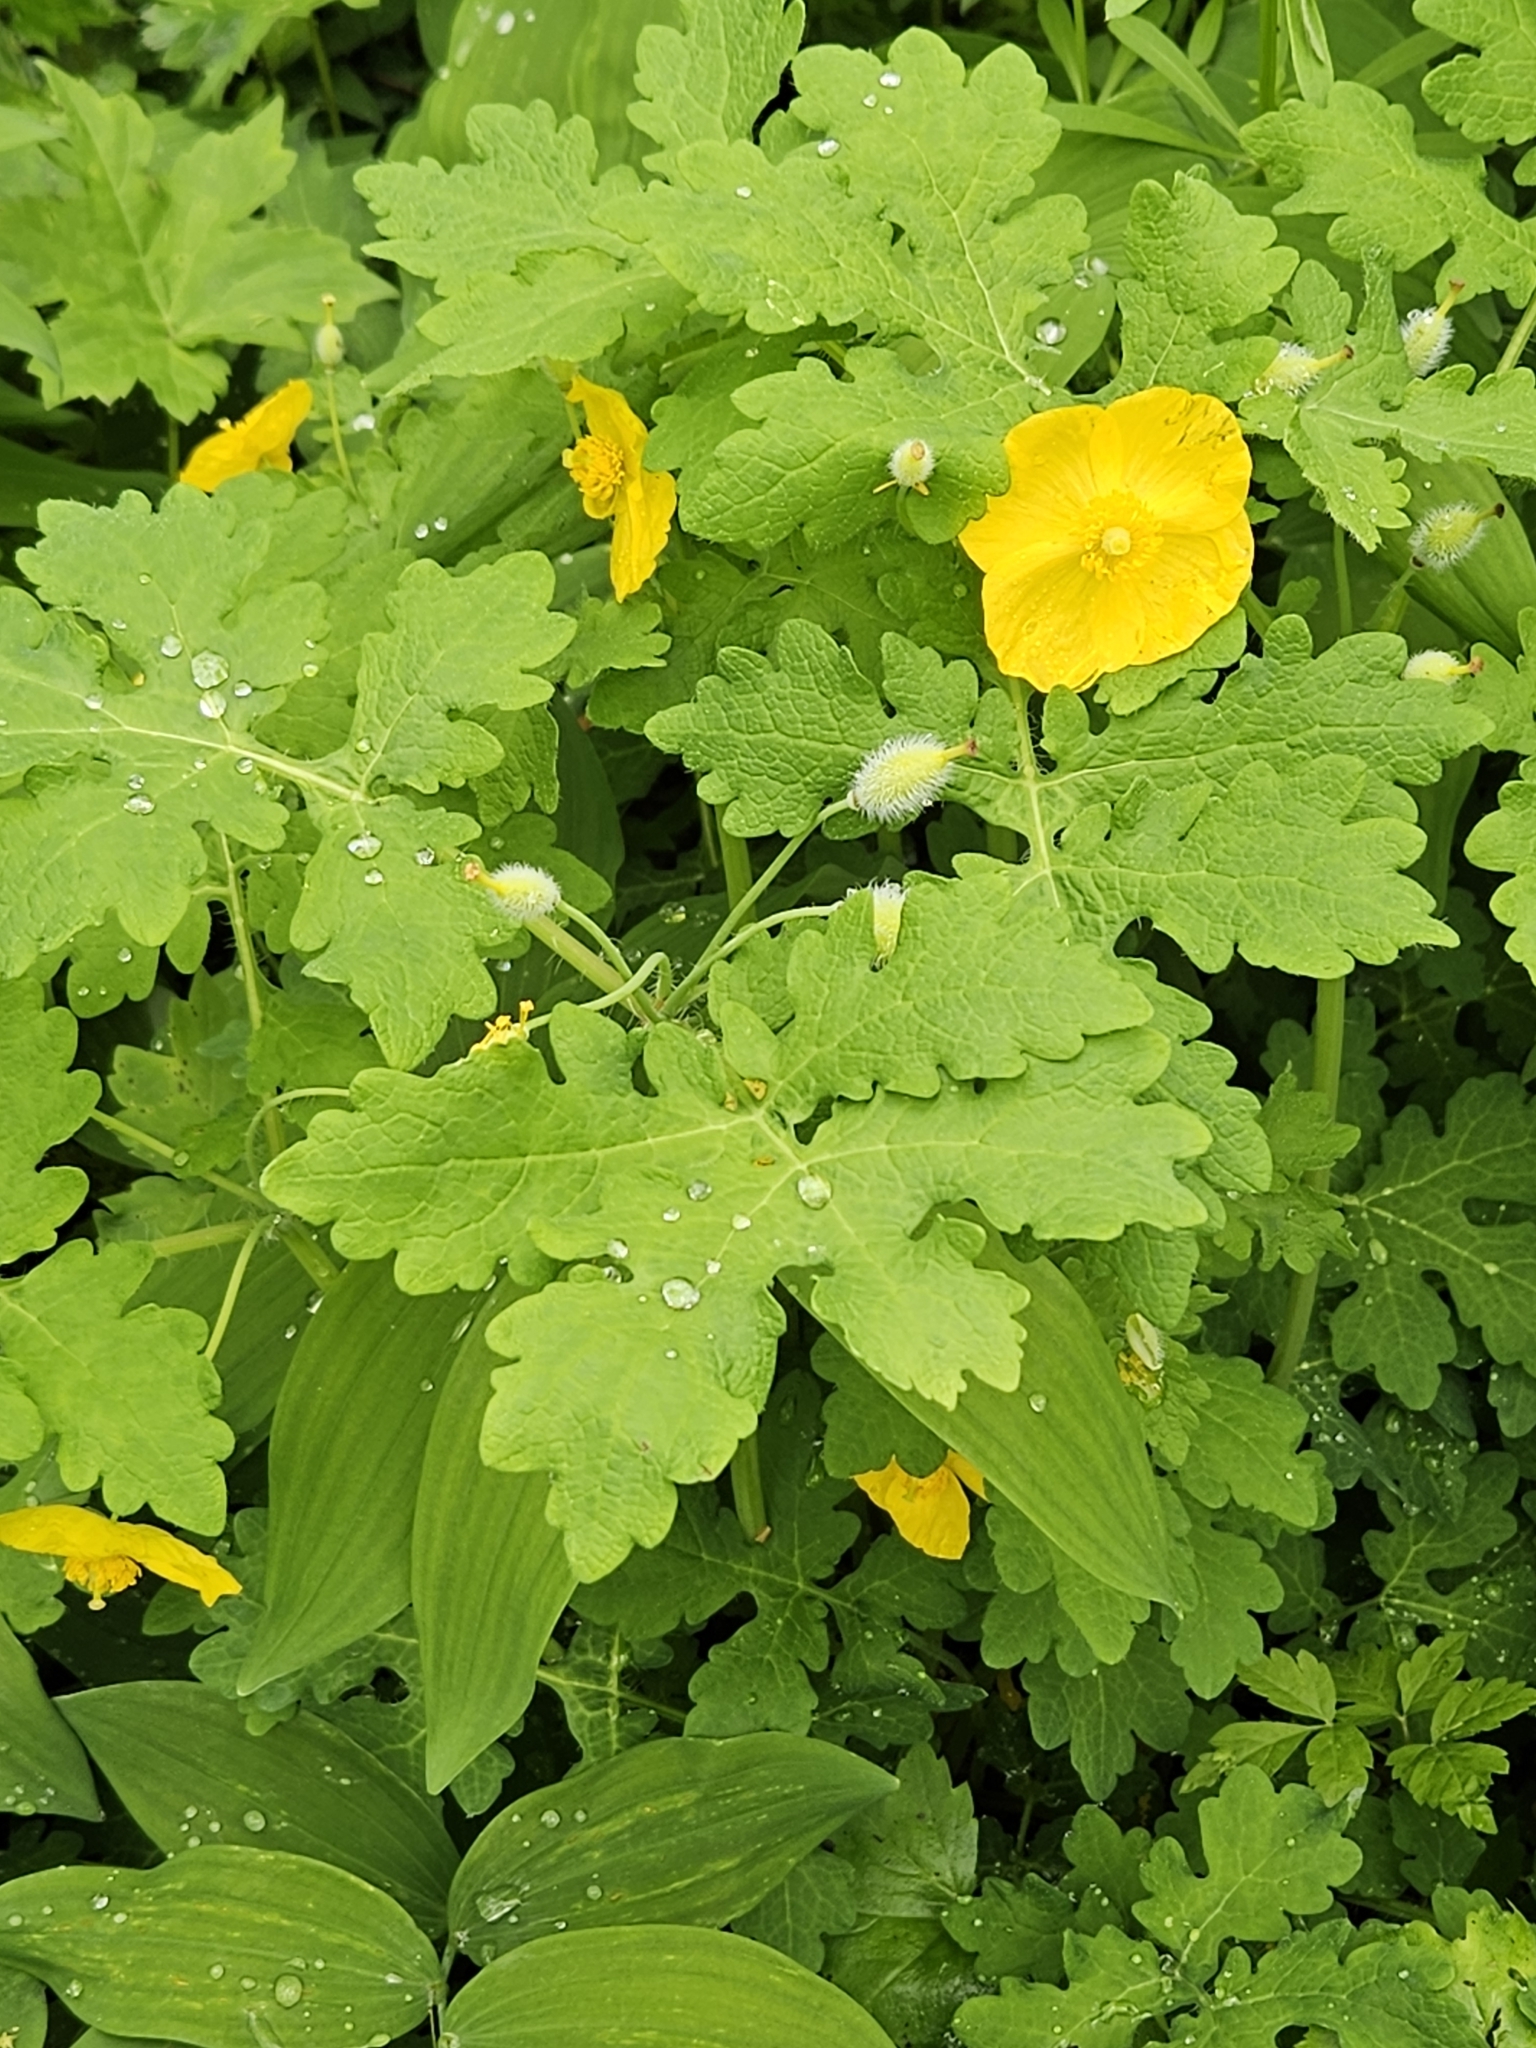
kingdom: Plantae
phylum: Tracheophyta
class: Magnoliopsida
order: Ranunculales
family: Papaveraceae
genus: Stylophorum
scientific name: Stylophorum diphyllum
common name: Celandine poppy
